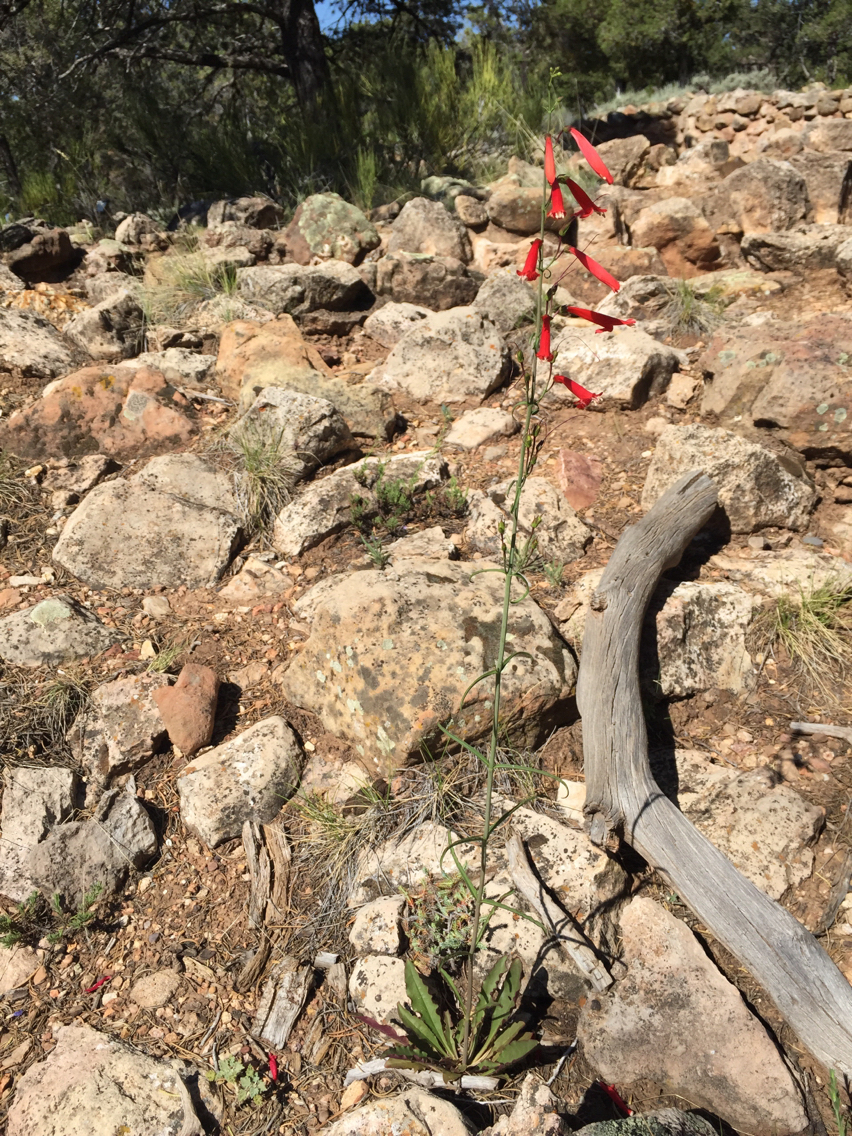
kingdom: Plantae
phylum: Tracheophyta
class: Magnoliopsida
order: Lamiales
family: Plantaginaceae
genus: Penstemon
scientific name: Penstemon barbatus
